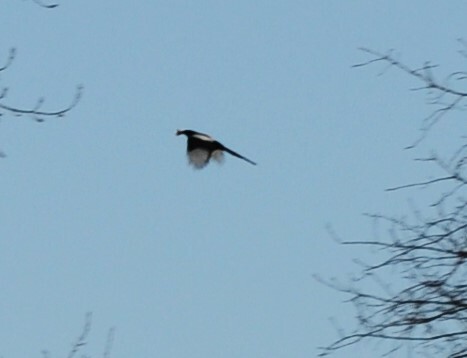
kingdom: Animalia
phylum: Chordata
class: Aves
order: Passeriformes
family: Corvidae
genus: Pica
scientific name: Pica pica
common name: Eurasian magpie
